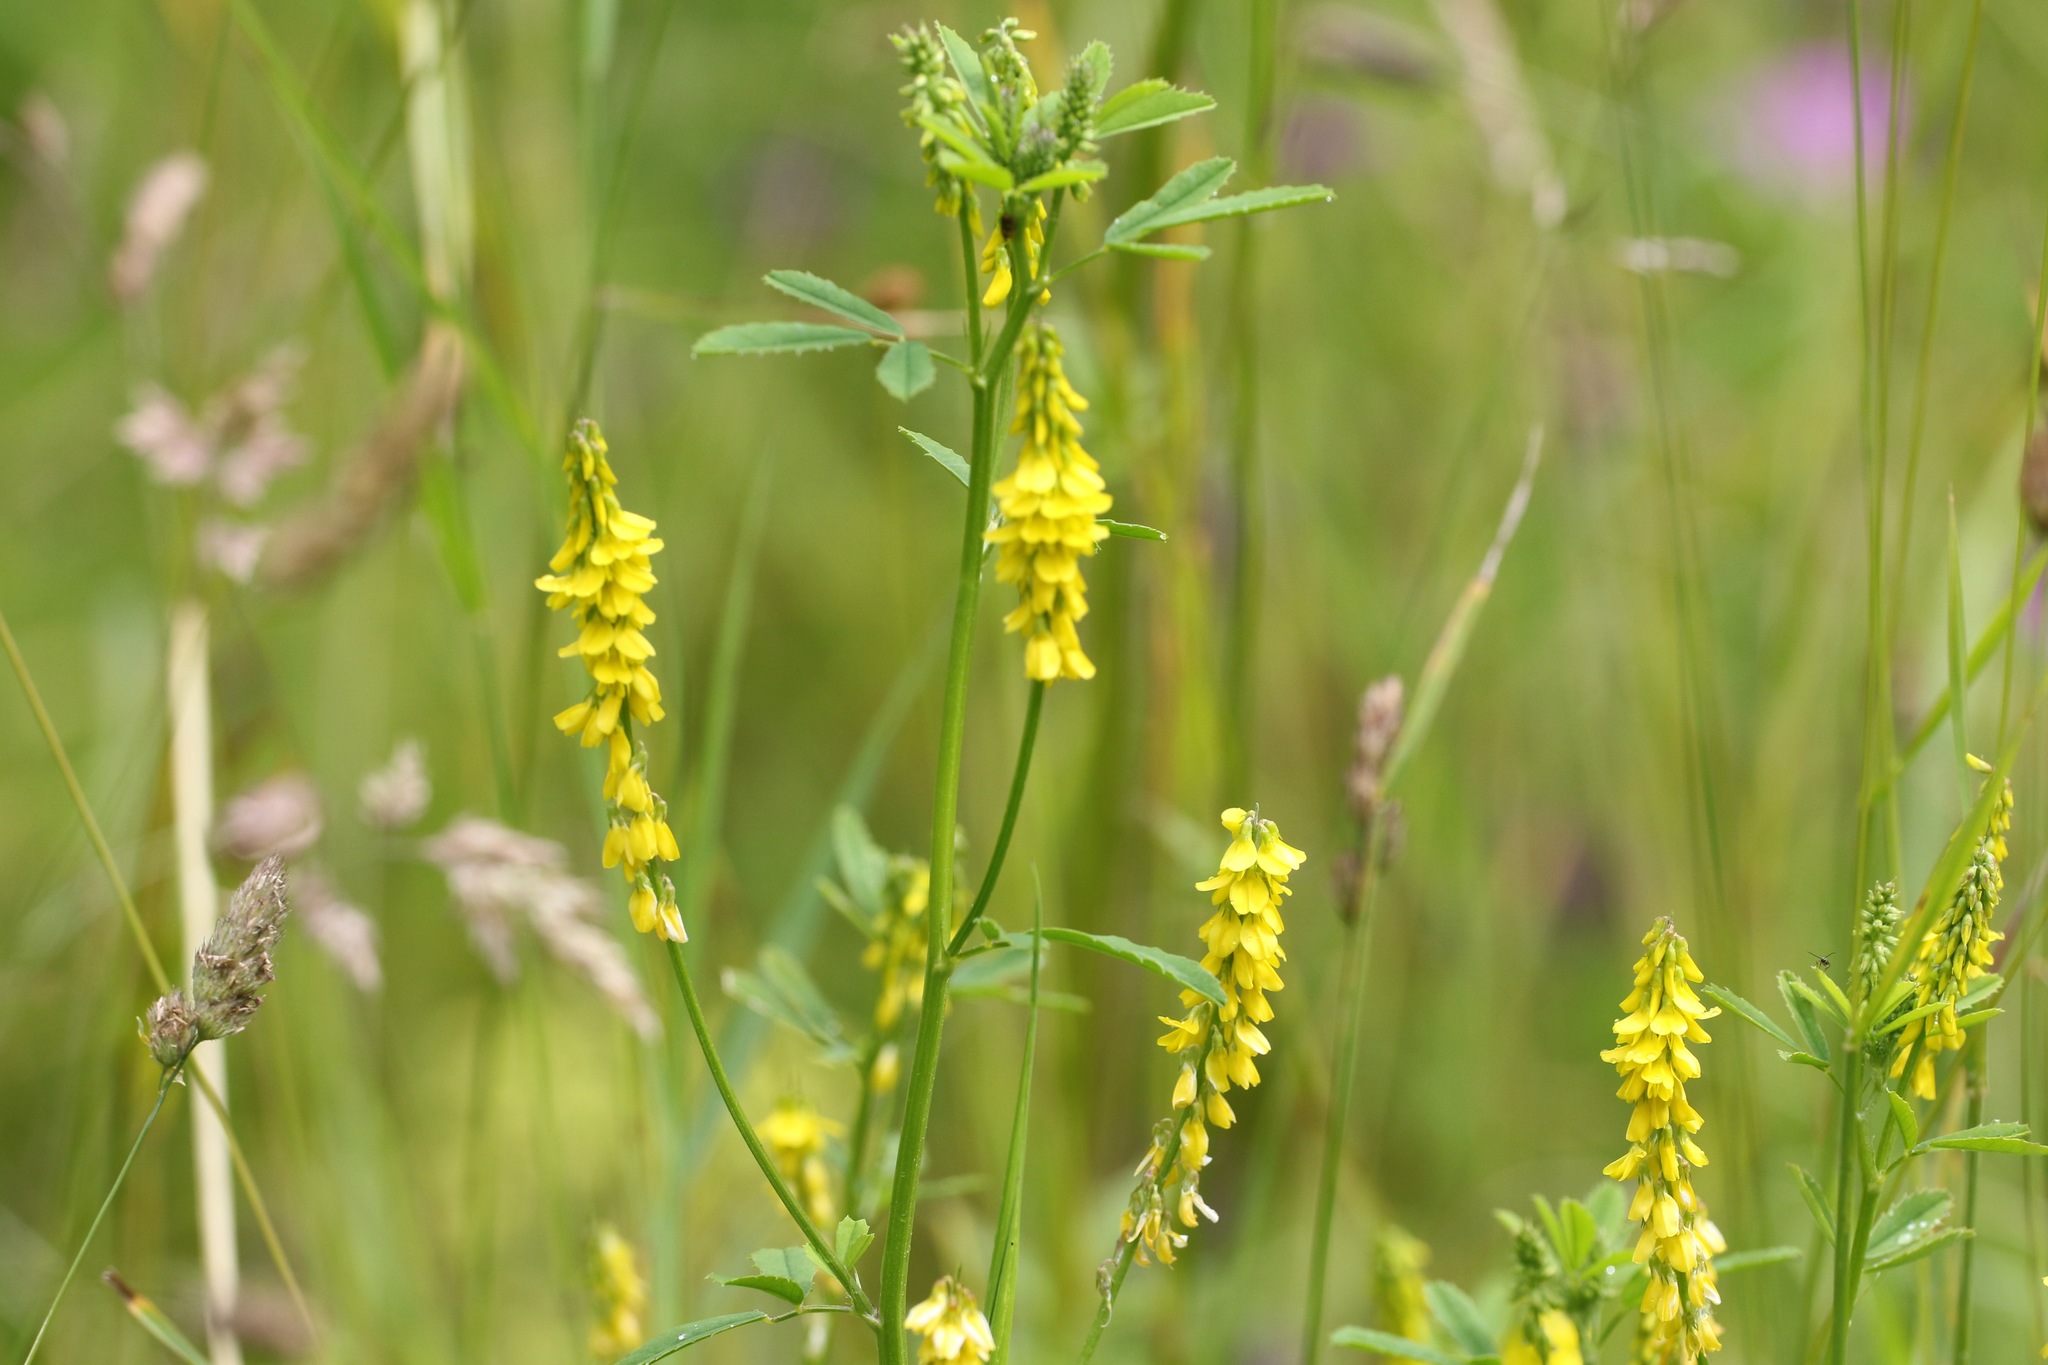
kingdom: Plantae
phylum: Tracheophyta
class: Magnoliopsida
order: Fabales
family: Fabaceae
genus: Melilotus
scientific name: Melilotus officinalis
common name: Sweetclover
